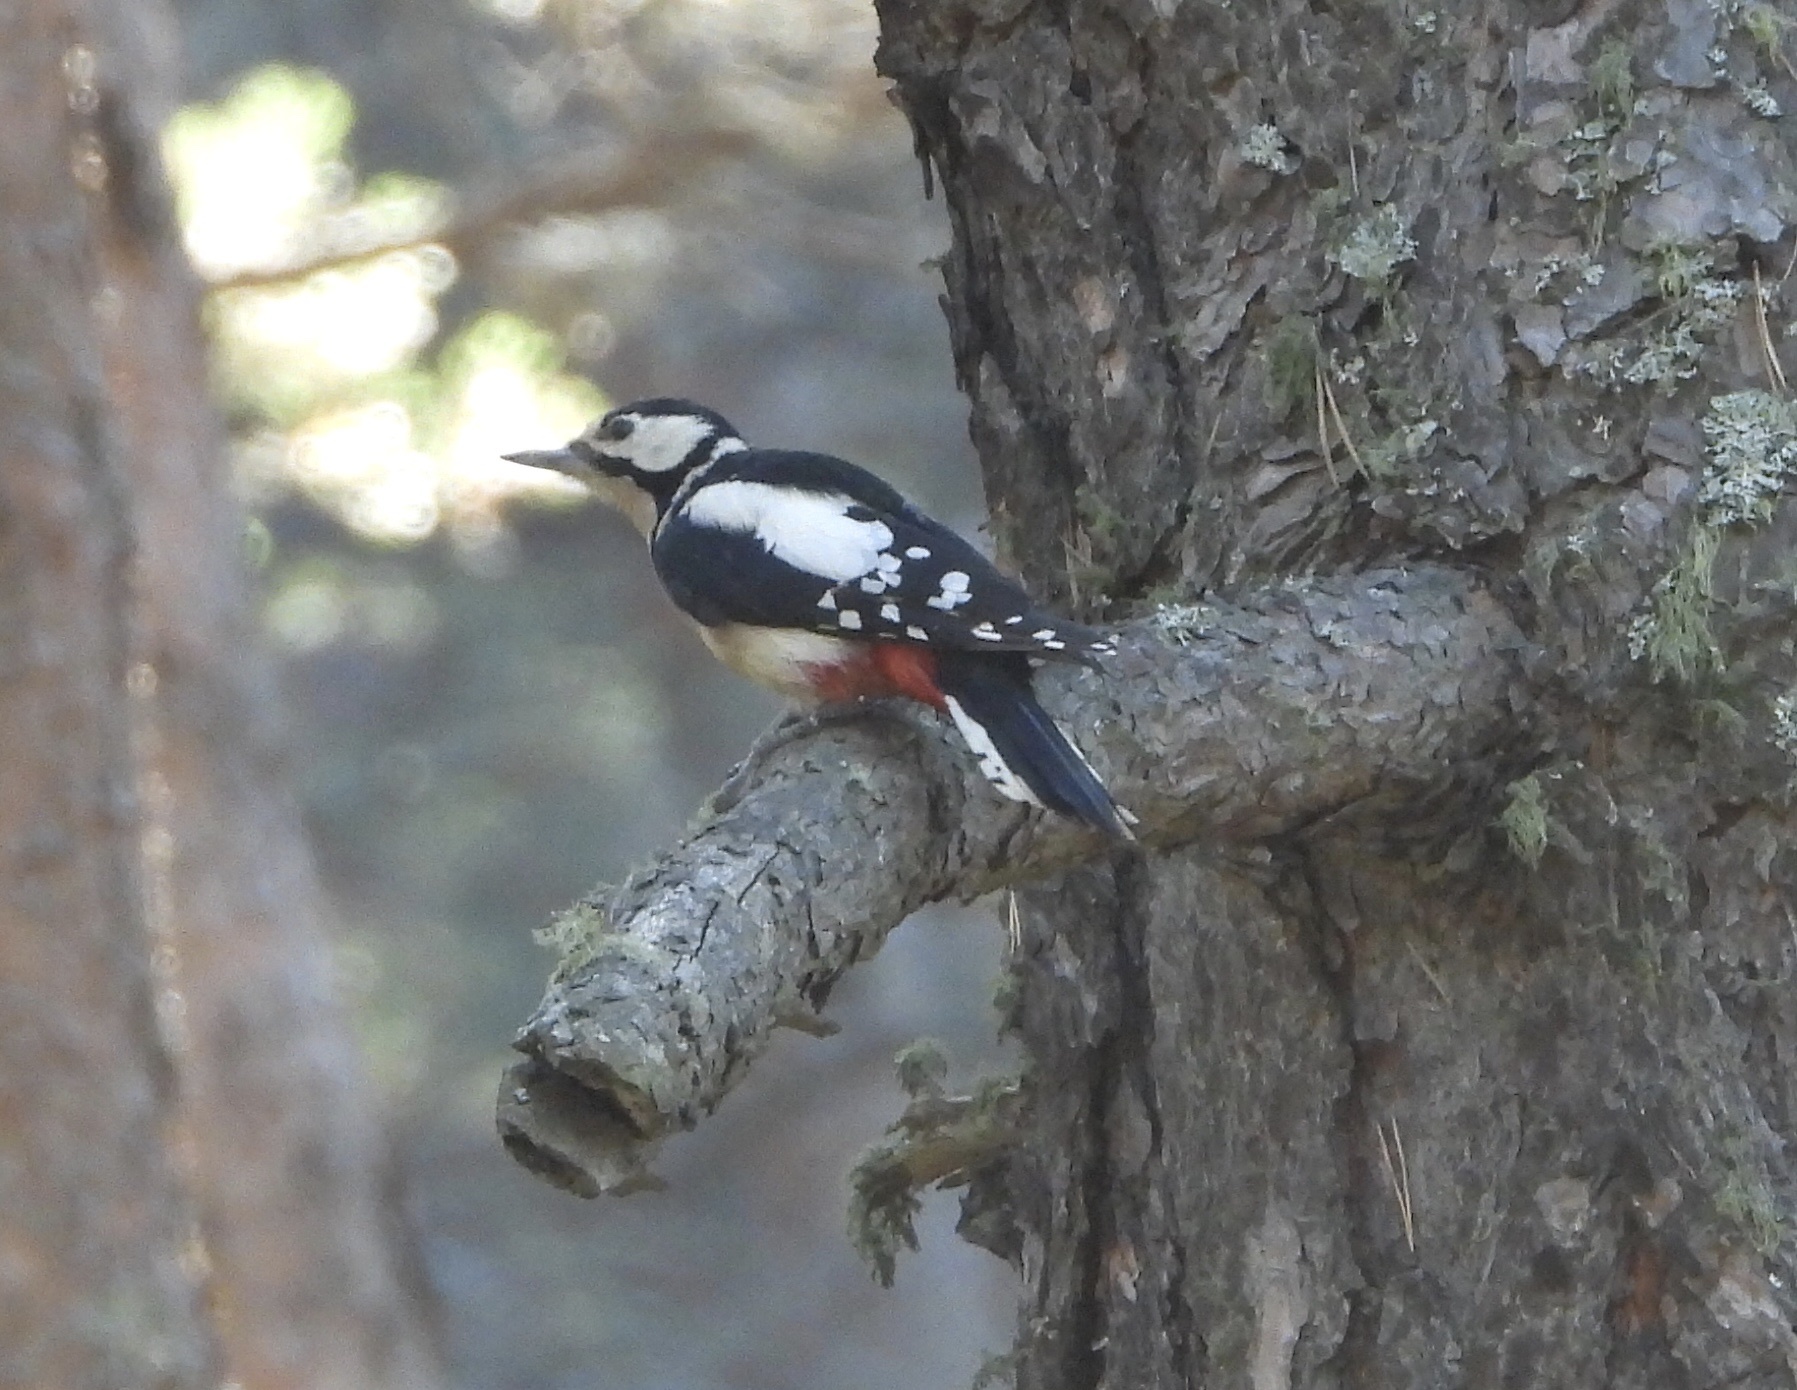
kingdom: Animalia
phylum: Chordata
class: Aves
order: Piciformes
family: Picidae
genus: Dendrocopos
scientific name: Dendrocopos major
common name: Great spotted woodpecker
